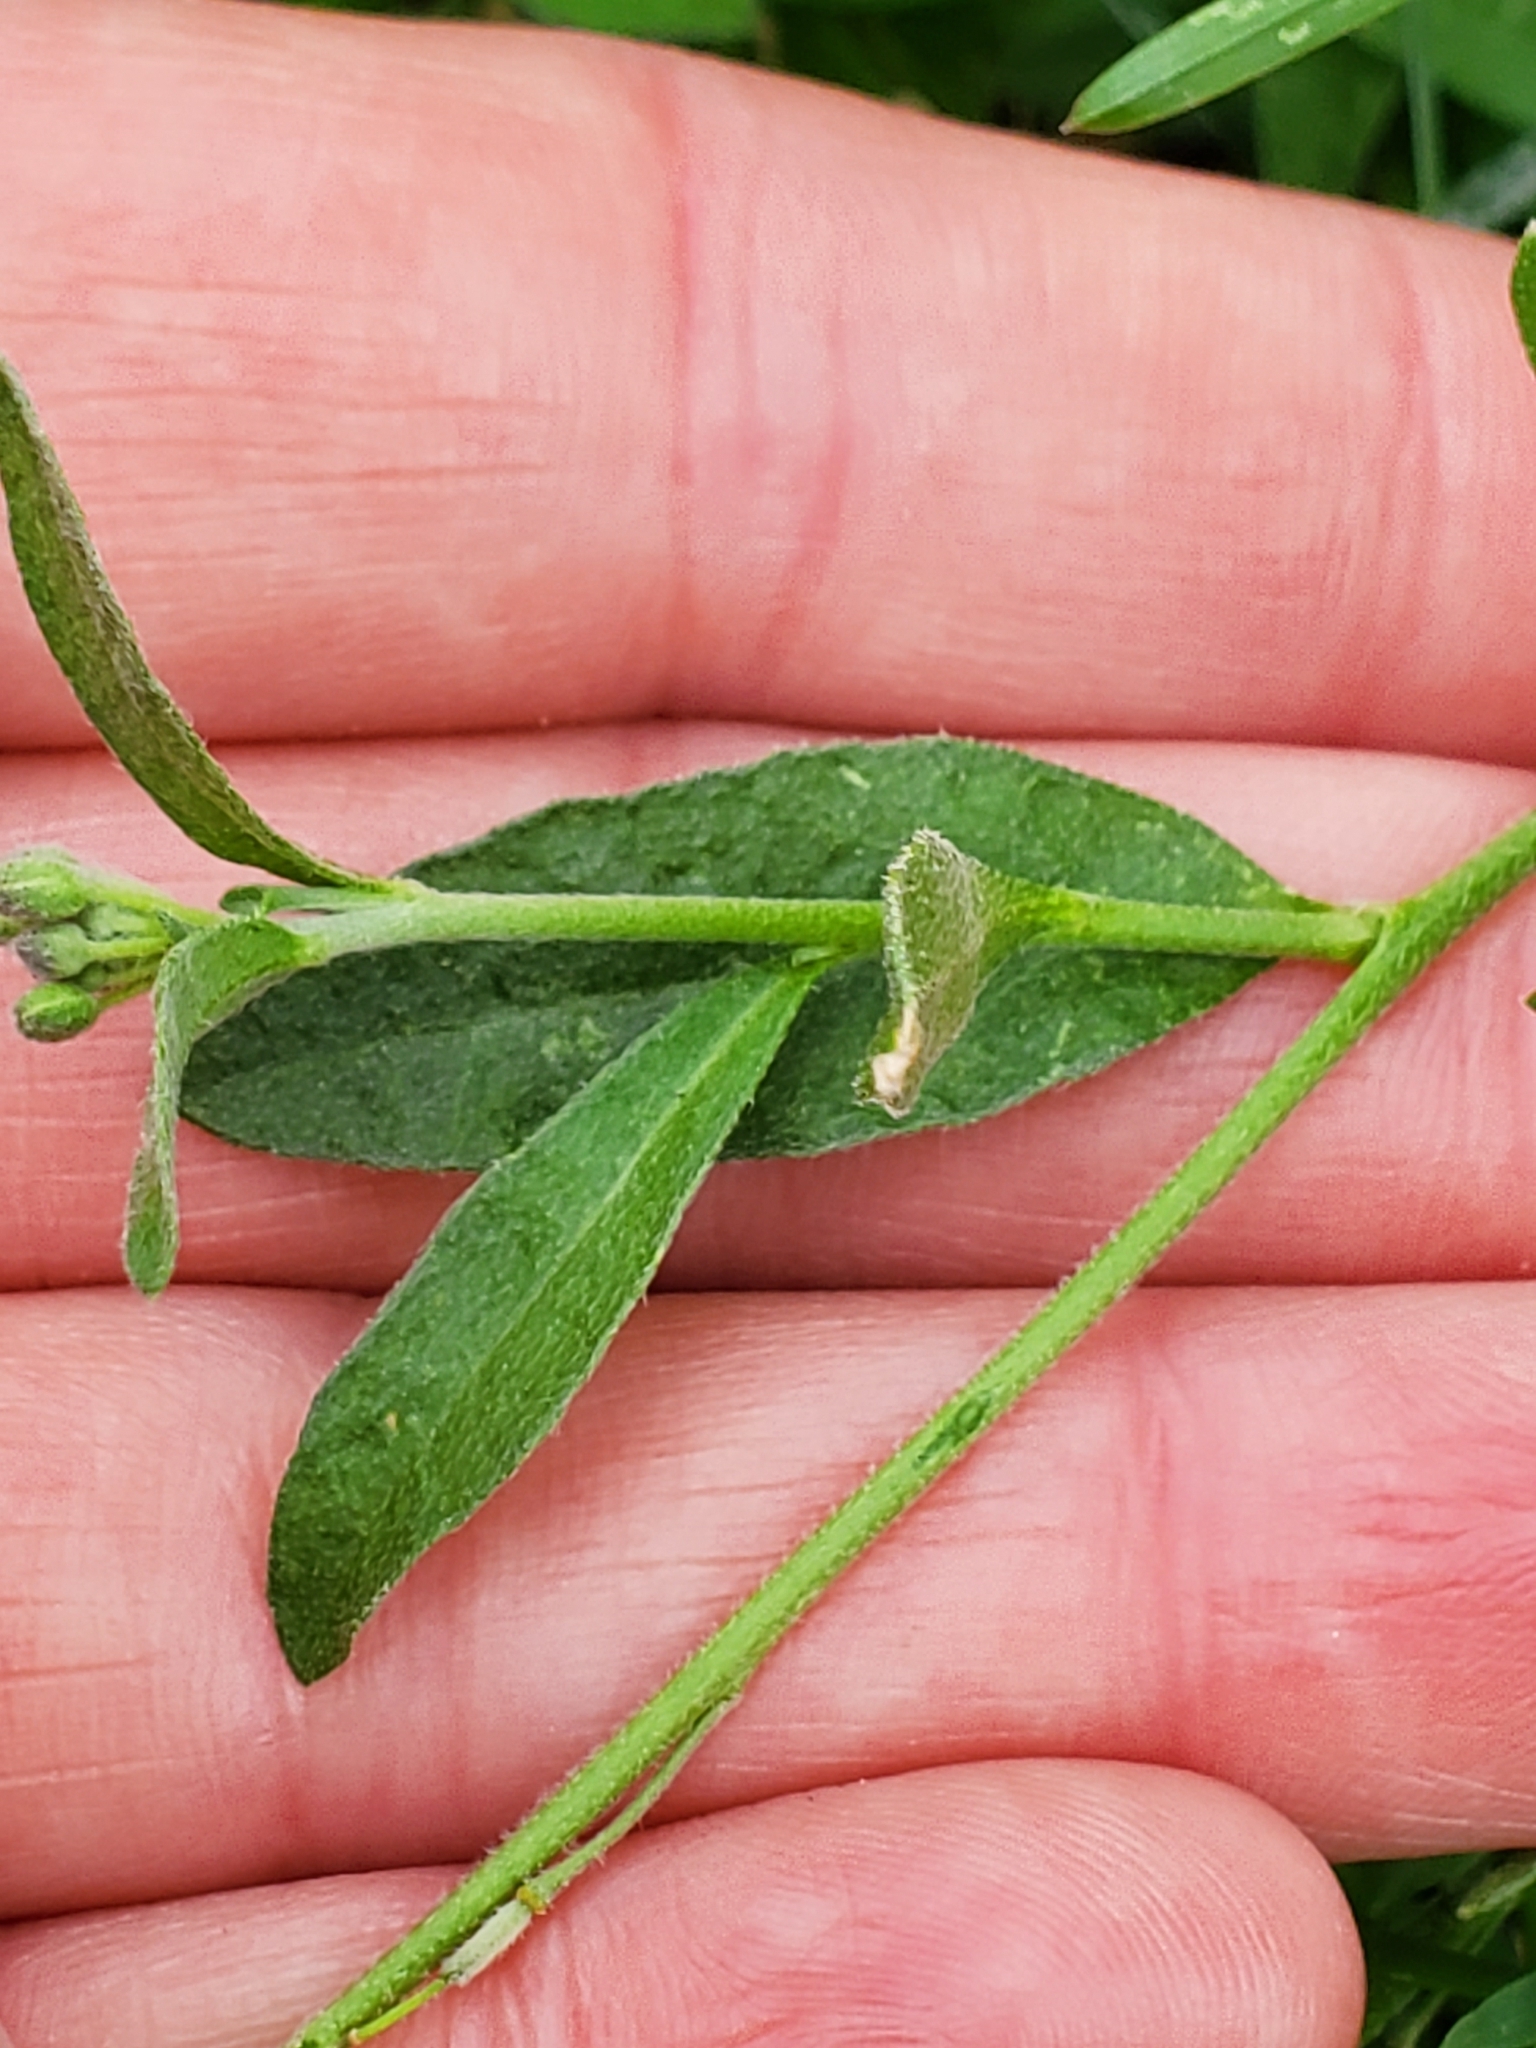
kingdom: Plantae
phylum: Tracheophyta
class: Magnoliopsida
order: Brassicales
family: Brassicaceae
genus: Berteroa
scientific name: Berteroa incana
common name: Hoary alison
